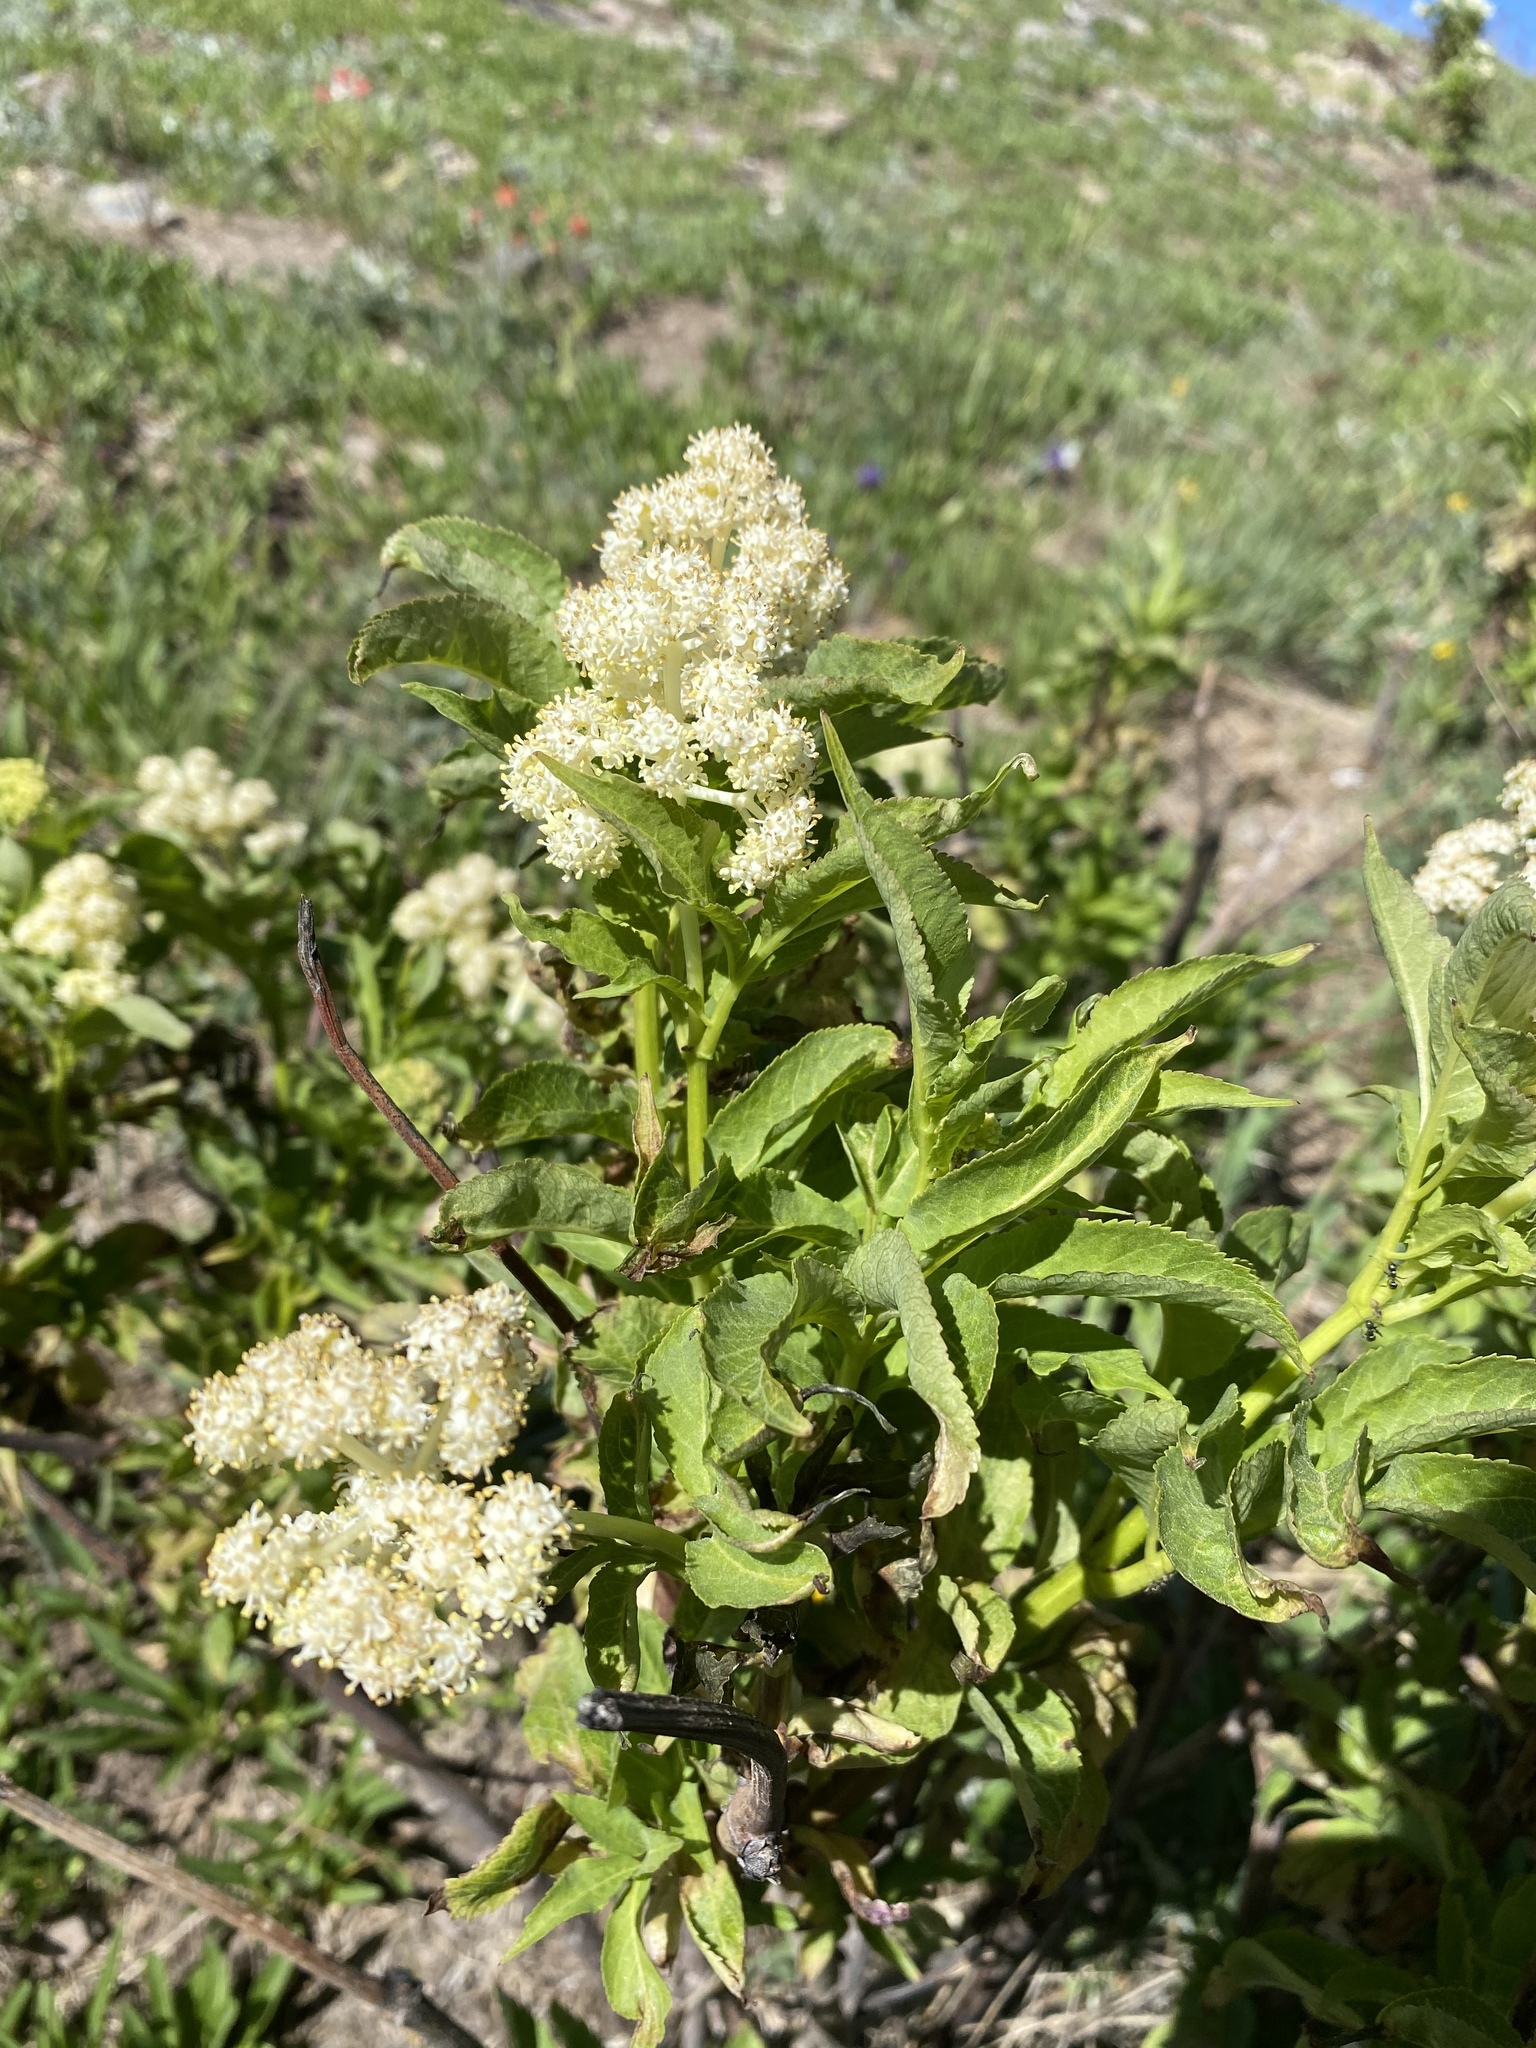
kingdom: Plantae
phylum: Tracheophyta
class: Magnoliopsida
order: Dipsacales
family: Viburnaceae
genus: Sambucus
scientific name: Sambucus racemosa
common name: Red-berried elder
